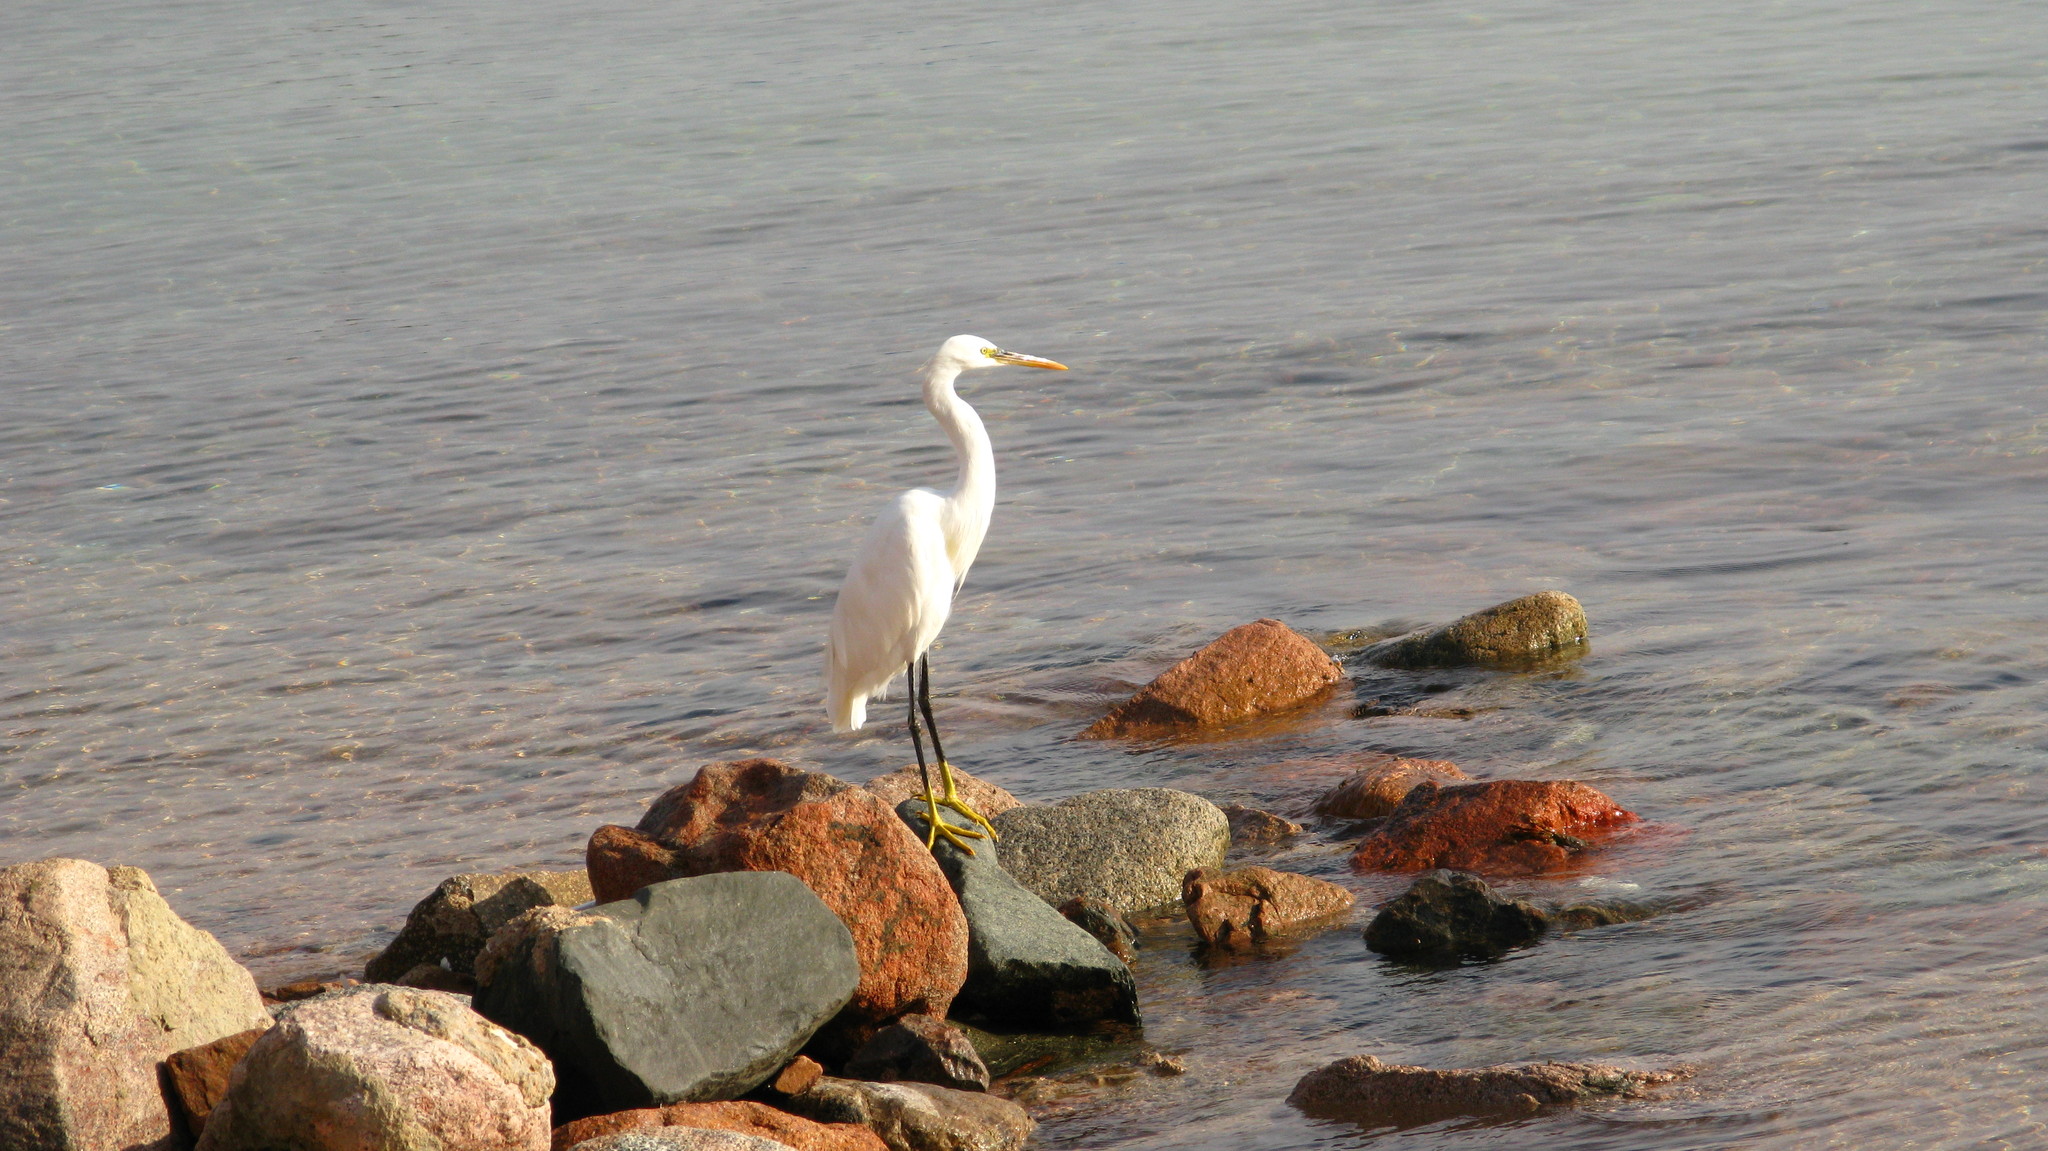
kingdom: Animalia
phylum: Chordata
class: Aves
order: Pelecaniformes
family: Ardeidae
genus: Egretta
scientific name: Egretta gularis
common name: Western reef-heron
